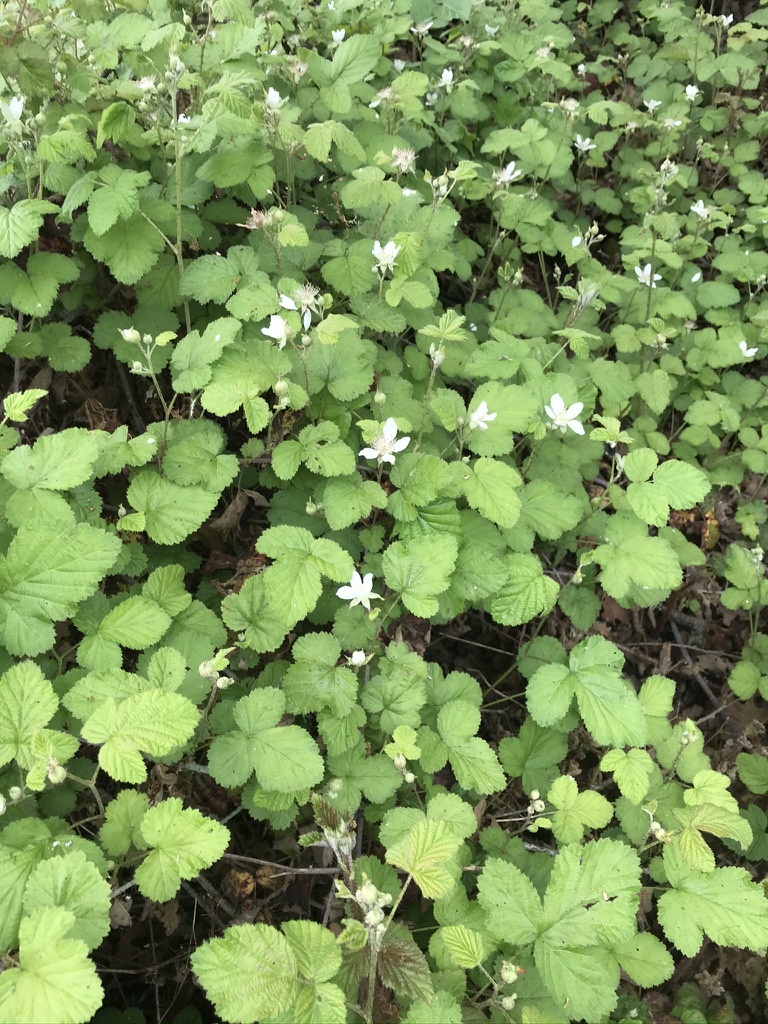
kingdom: Plantae
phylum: Tracheophyta
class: Magnoliopsida
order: Rosales
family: Rosaceae
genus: Rubus
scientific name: Rubus ursinus
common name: Pacific blackberry
